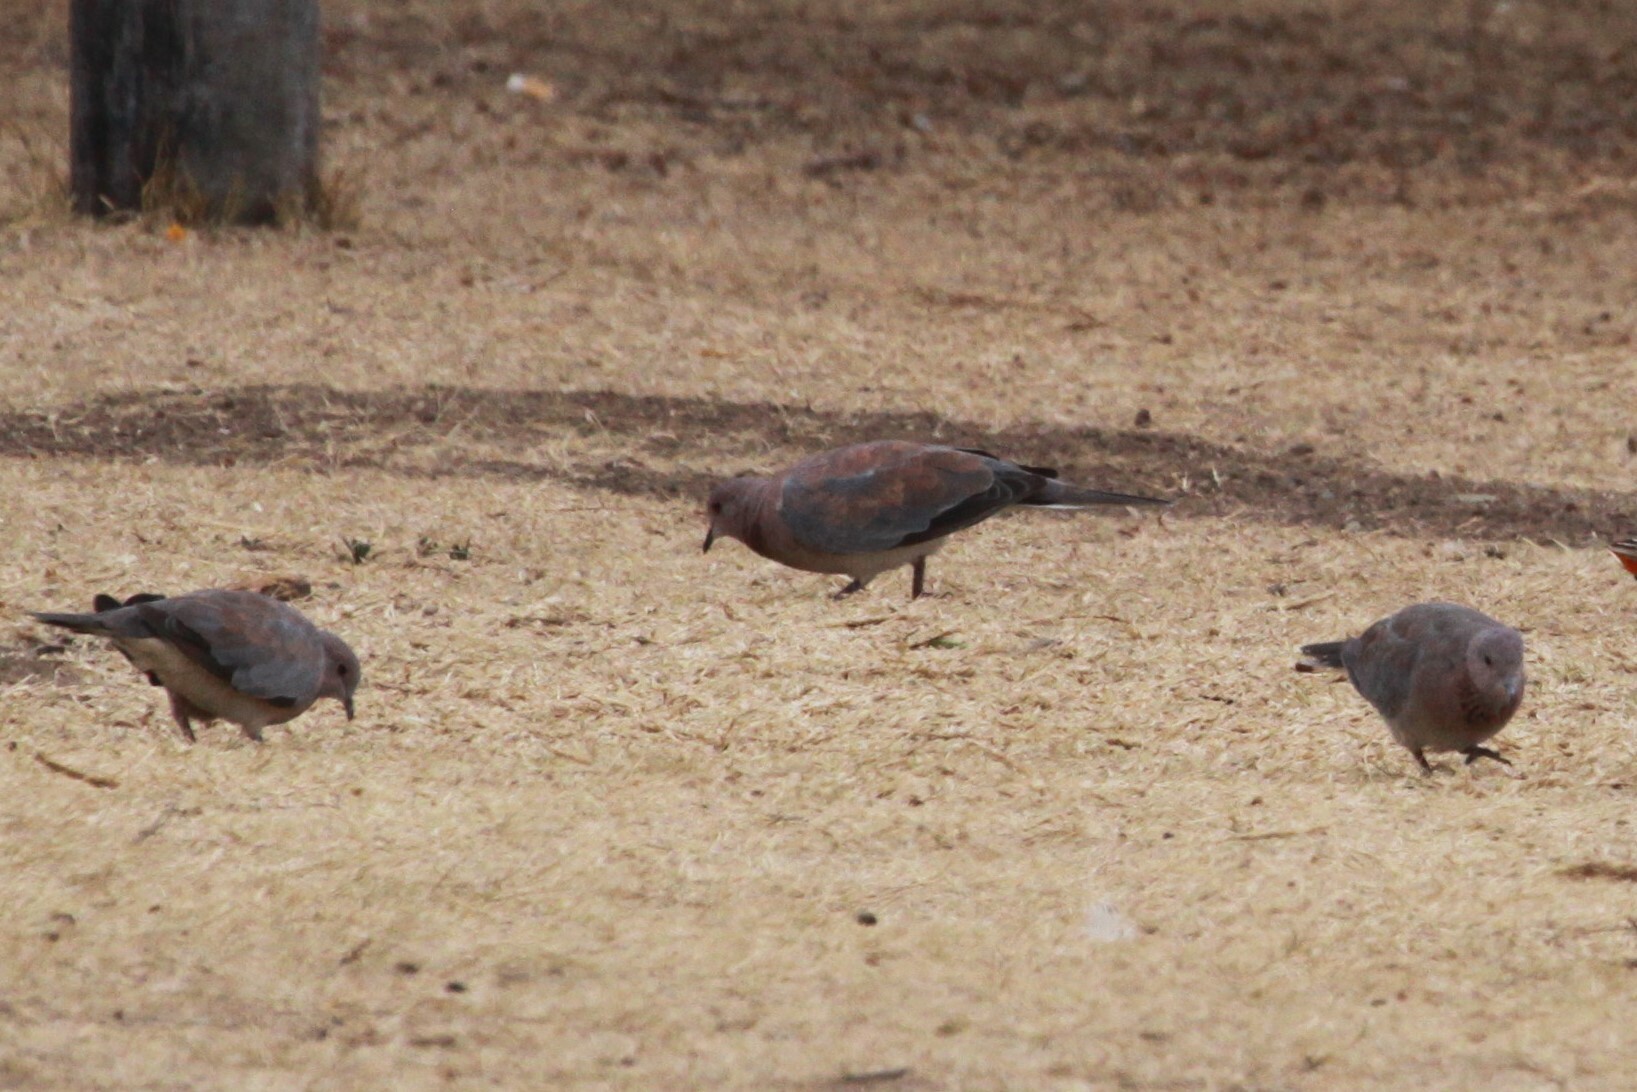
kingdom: Animalia
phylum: Chordata
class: Aves
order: Columbiformes
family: Columbidae
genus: Spilopelia
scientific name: Spilopelia senegalensis
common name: Laughing dove
